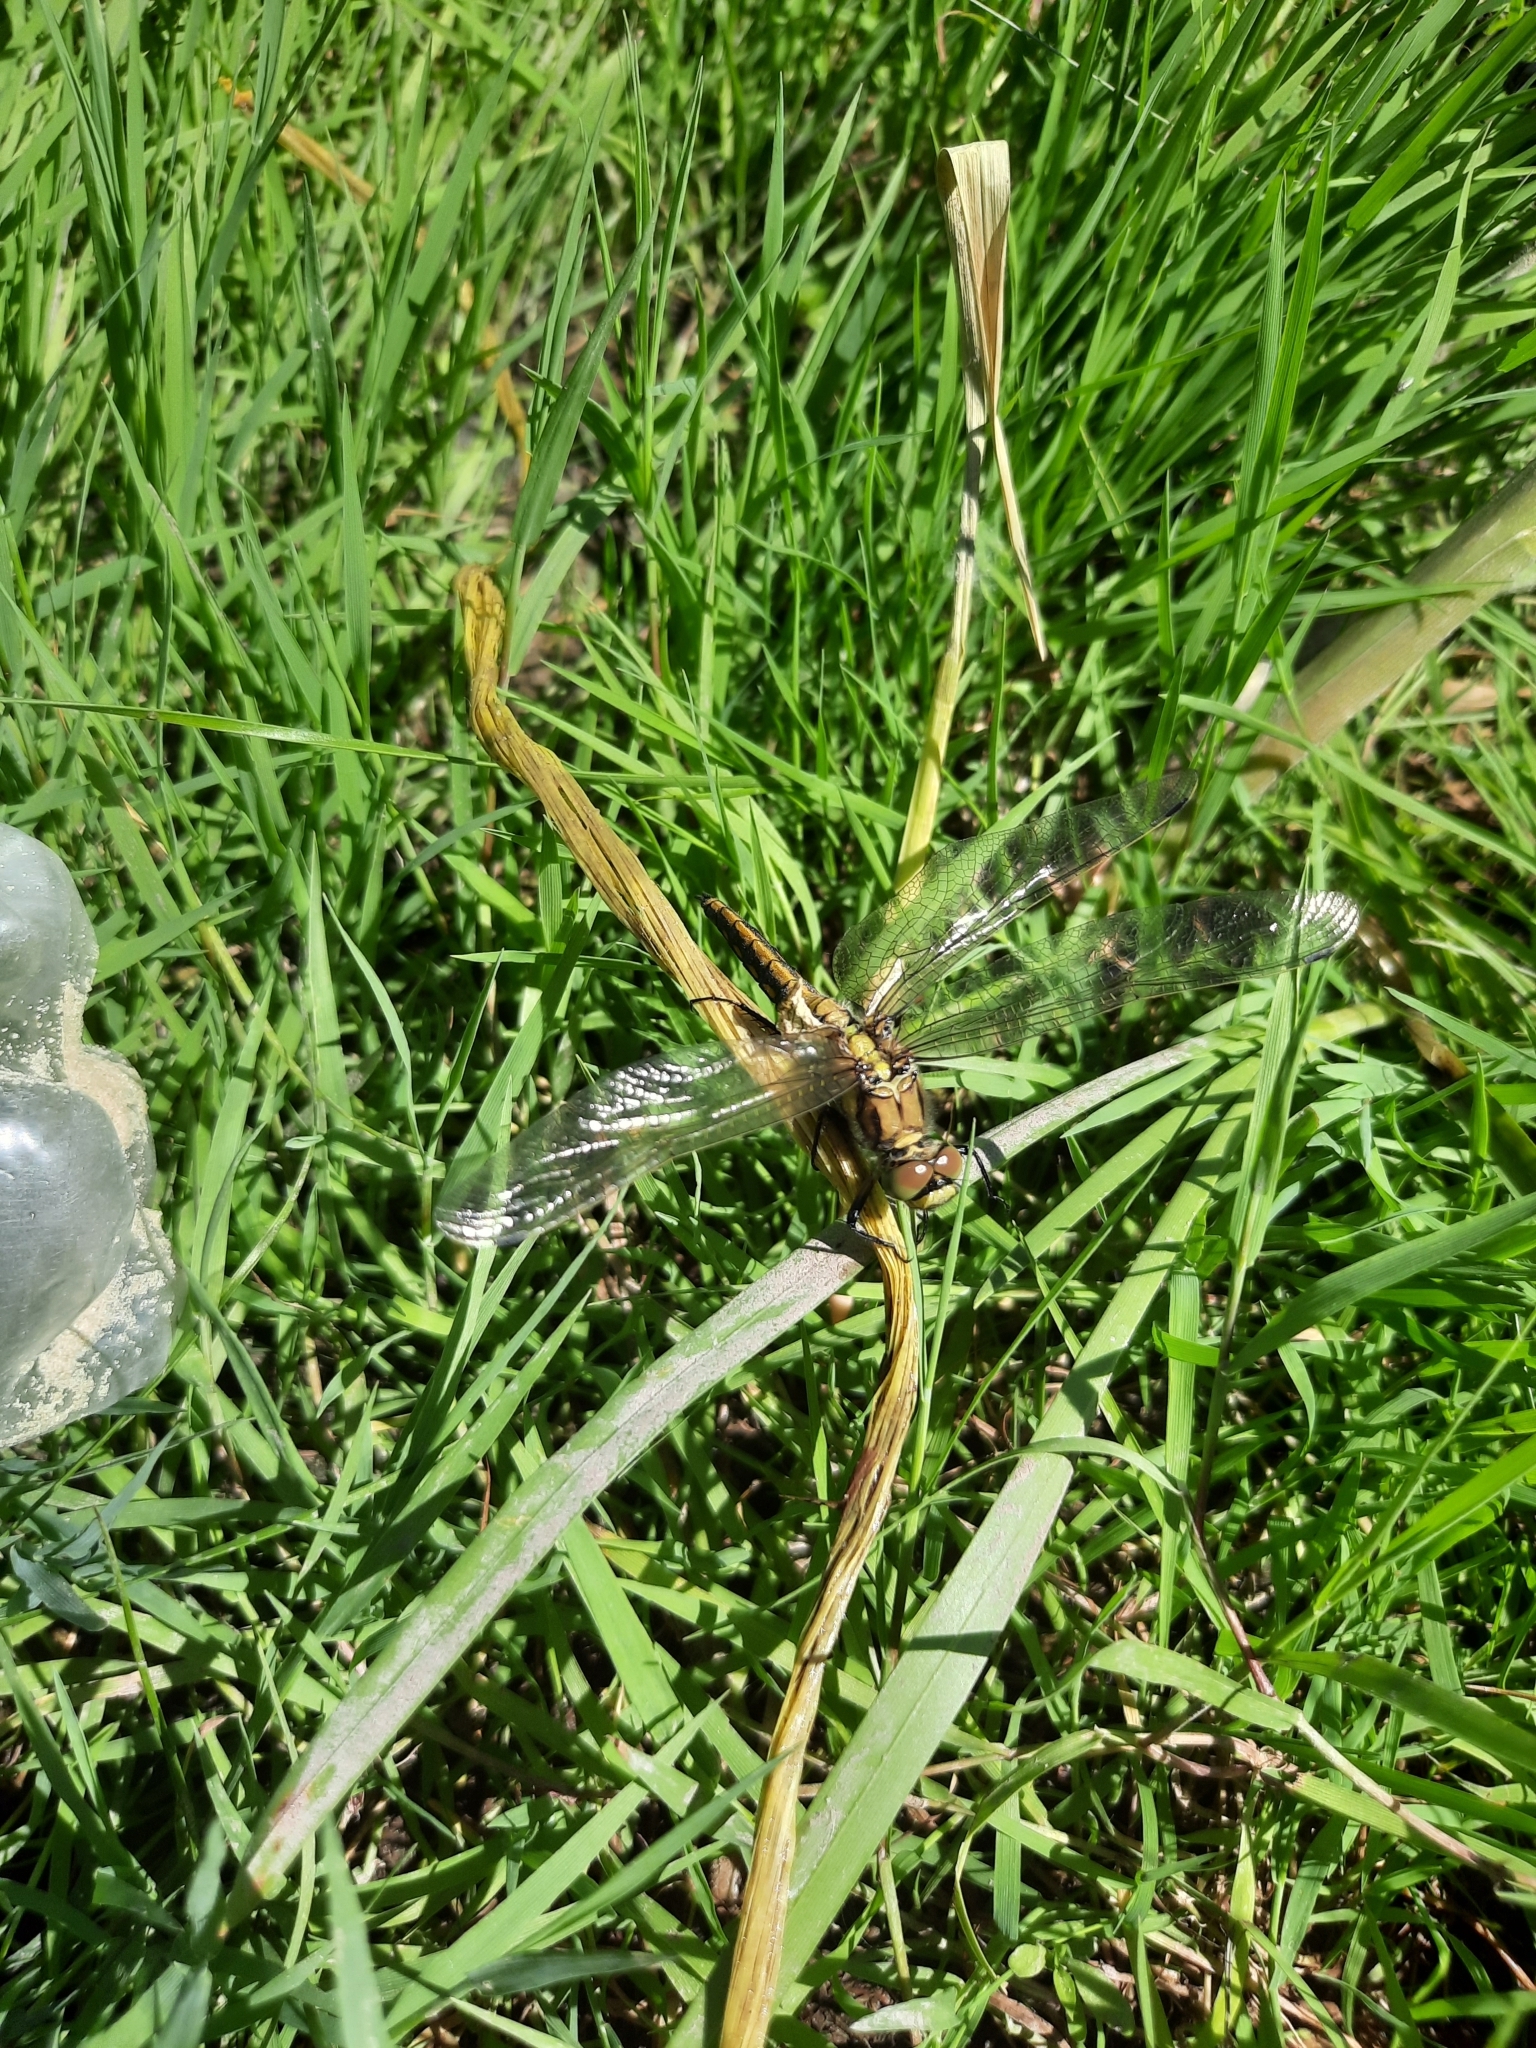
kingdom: Animalia
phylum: Arthropoda
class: Insecta
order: Odonata
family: Libellulidae
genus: Orthetrum
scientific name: Orthetrum cancellatum
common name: Black-tailed skimmer
